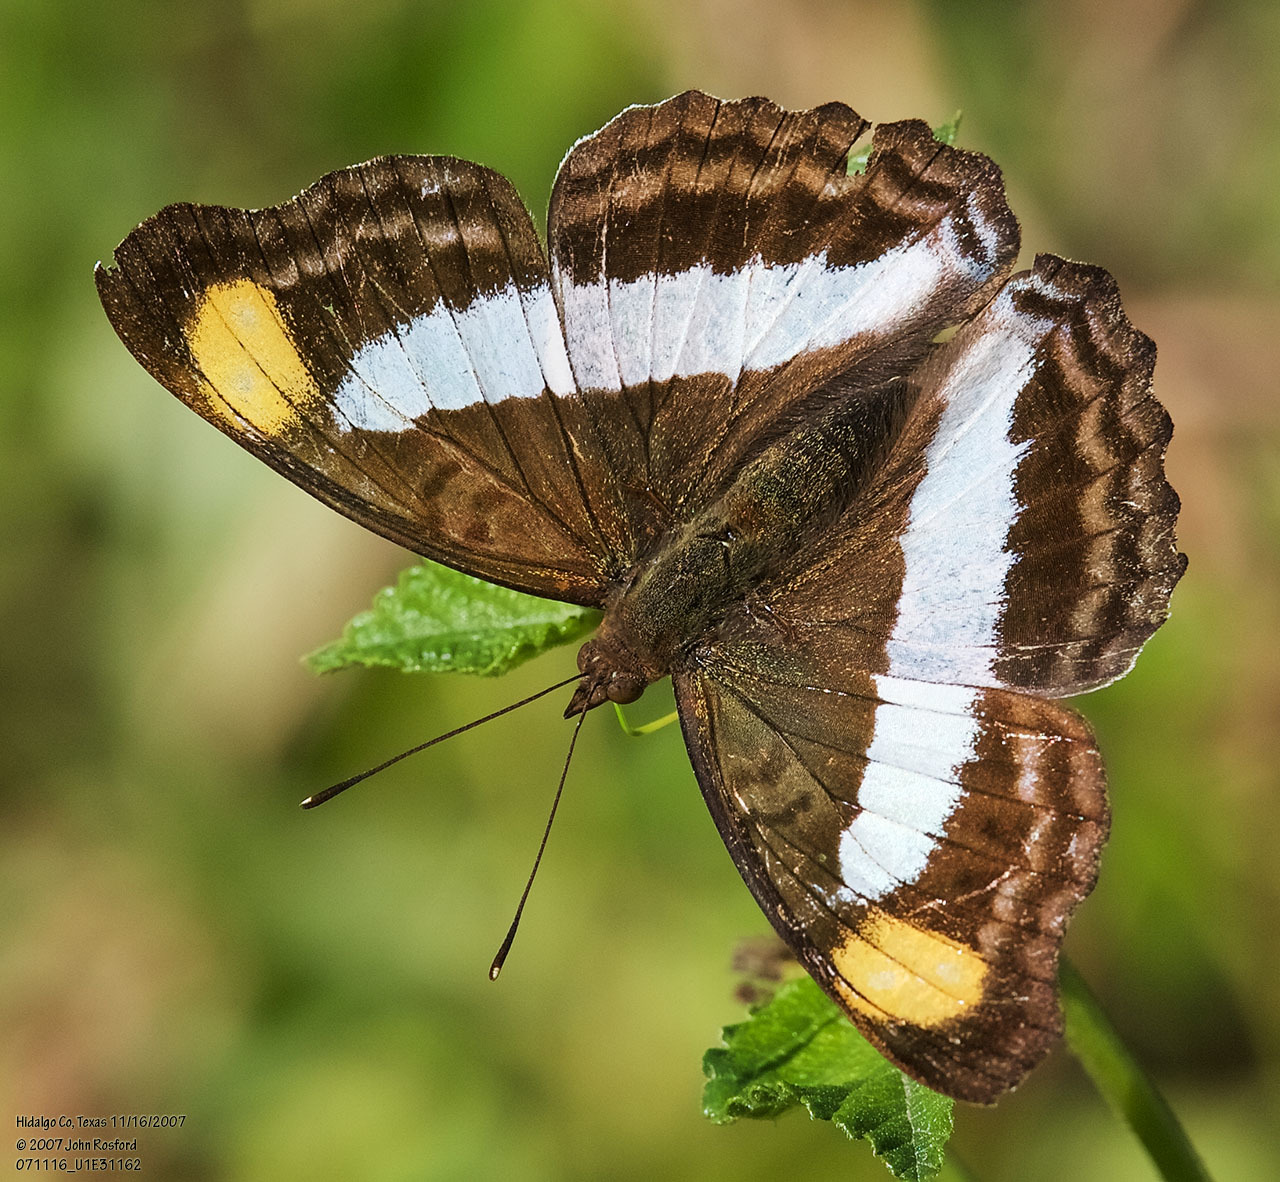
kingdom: Animalia
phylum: Arthropoda
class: Insecta
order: Lepidoptera
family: Nymphalidae
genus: Doxocopa
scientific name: Doxocopa pavon
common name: Pavon emperor
